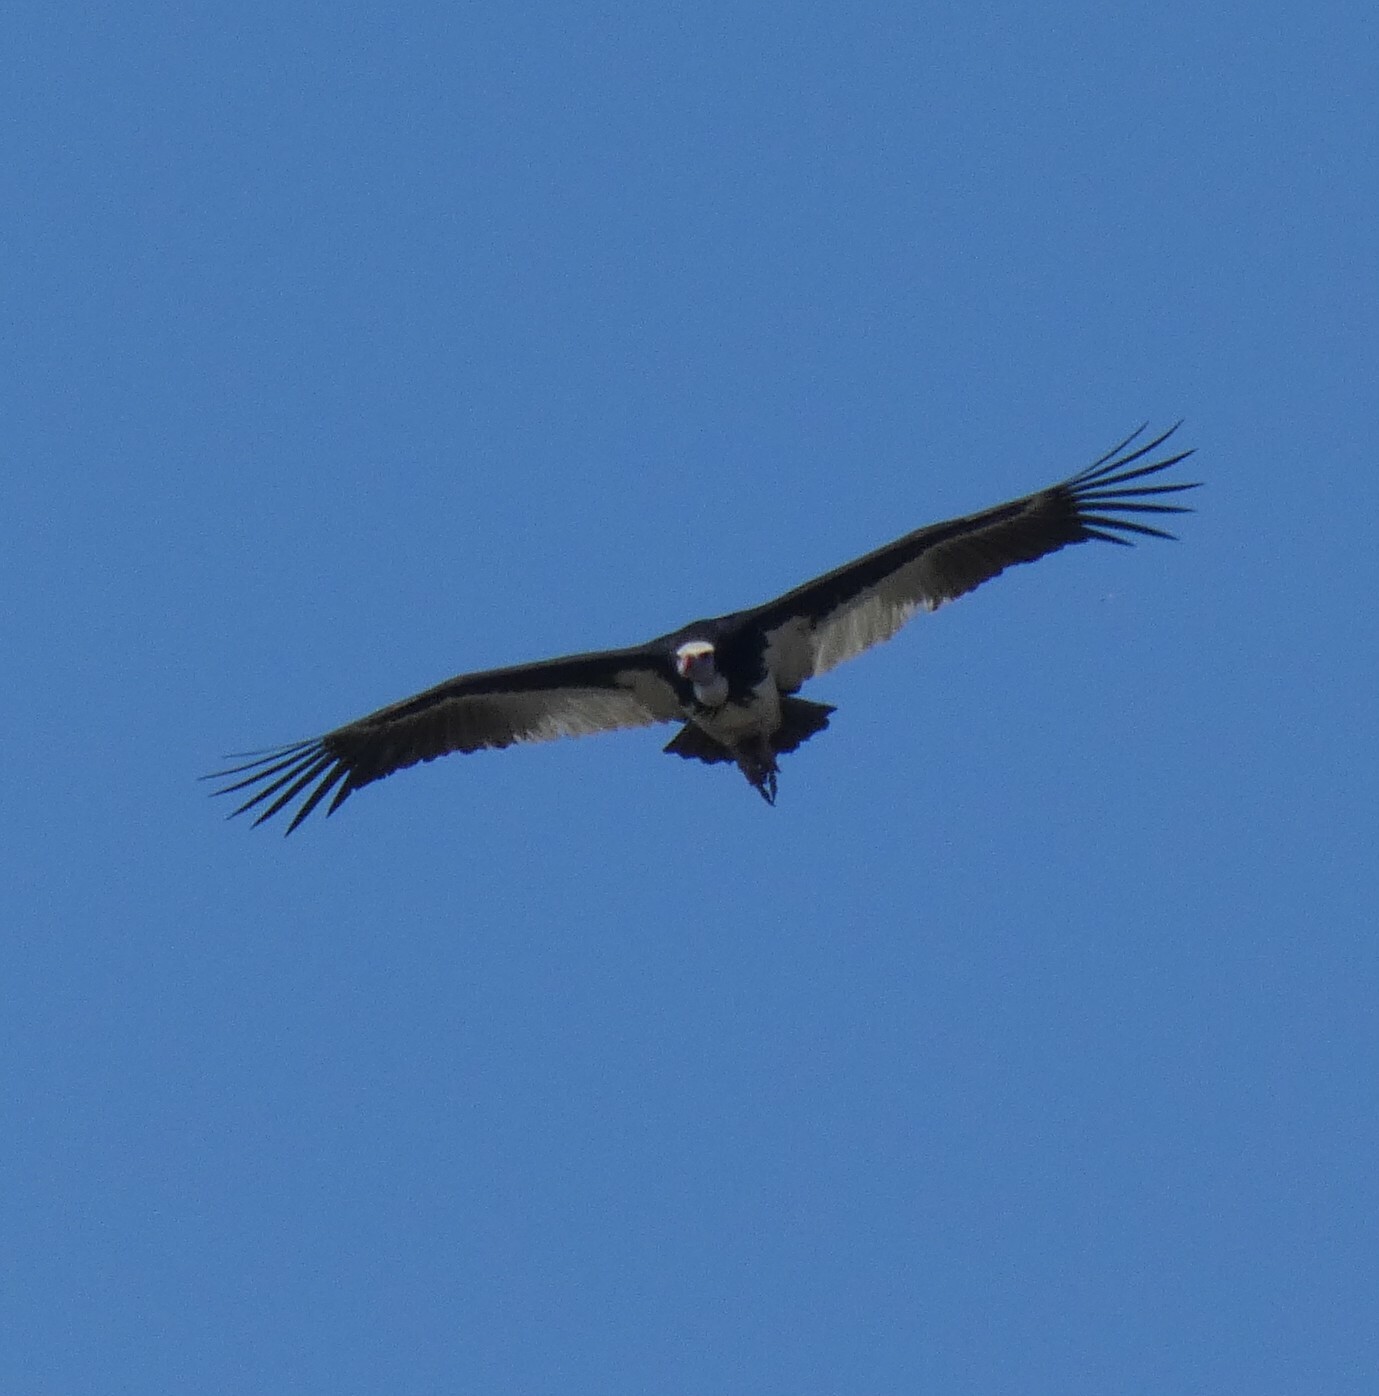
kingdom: Animalia
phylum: Chordata
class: Aves
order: Accipitriformes
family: Accipitridae
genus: Trigonoceps
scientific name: Trigonoceps occipitalis
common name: White-headed vulture
